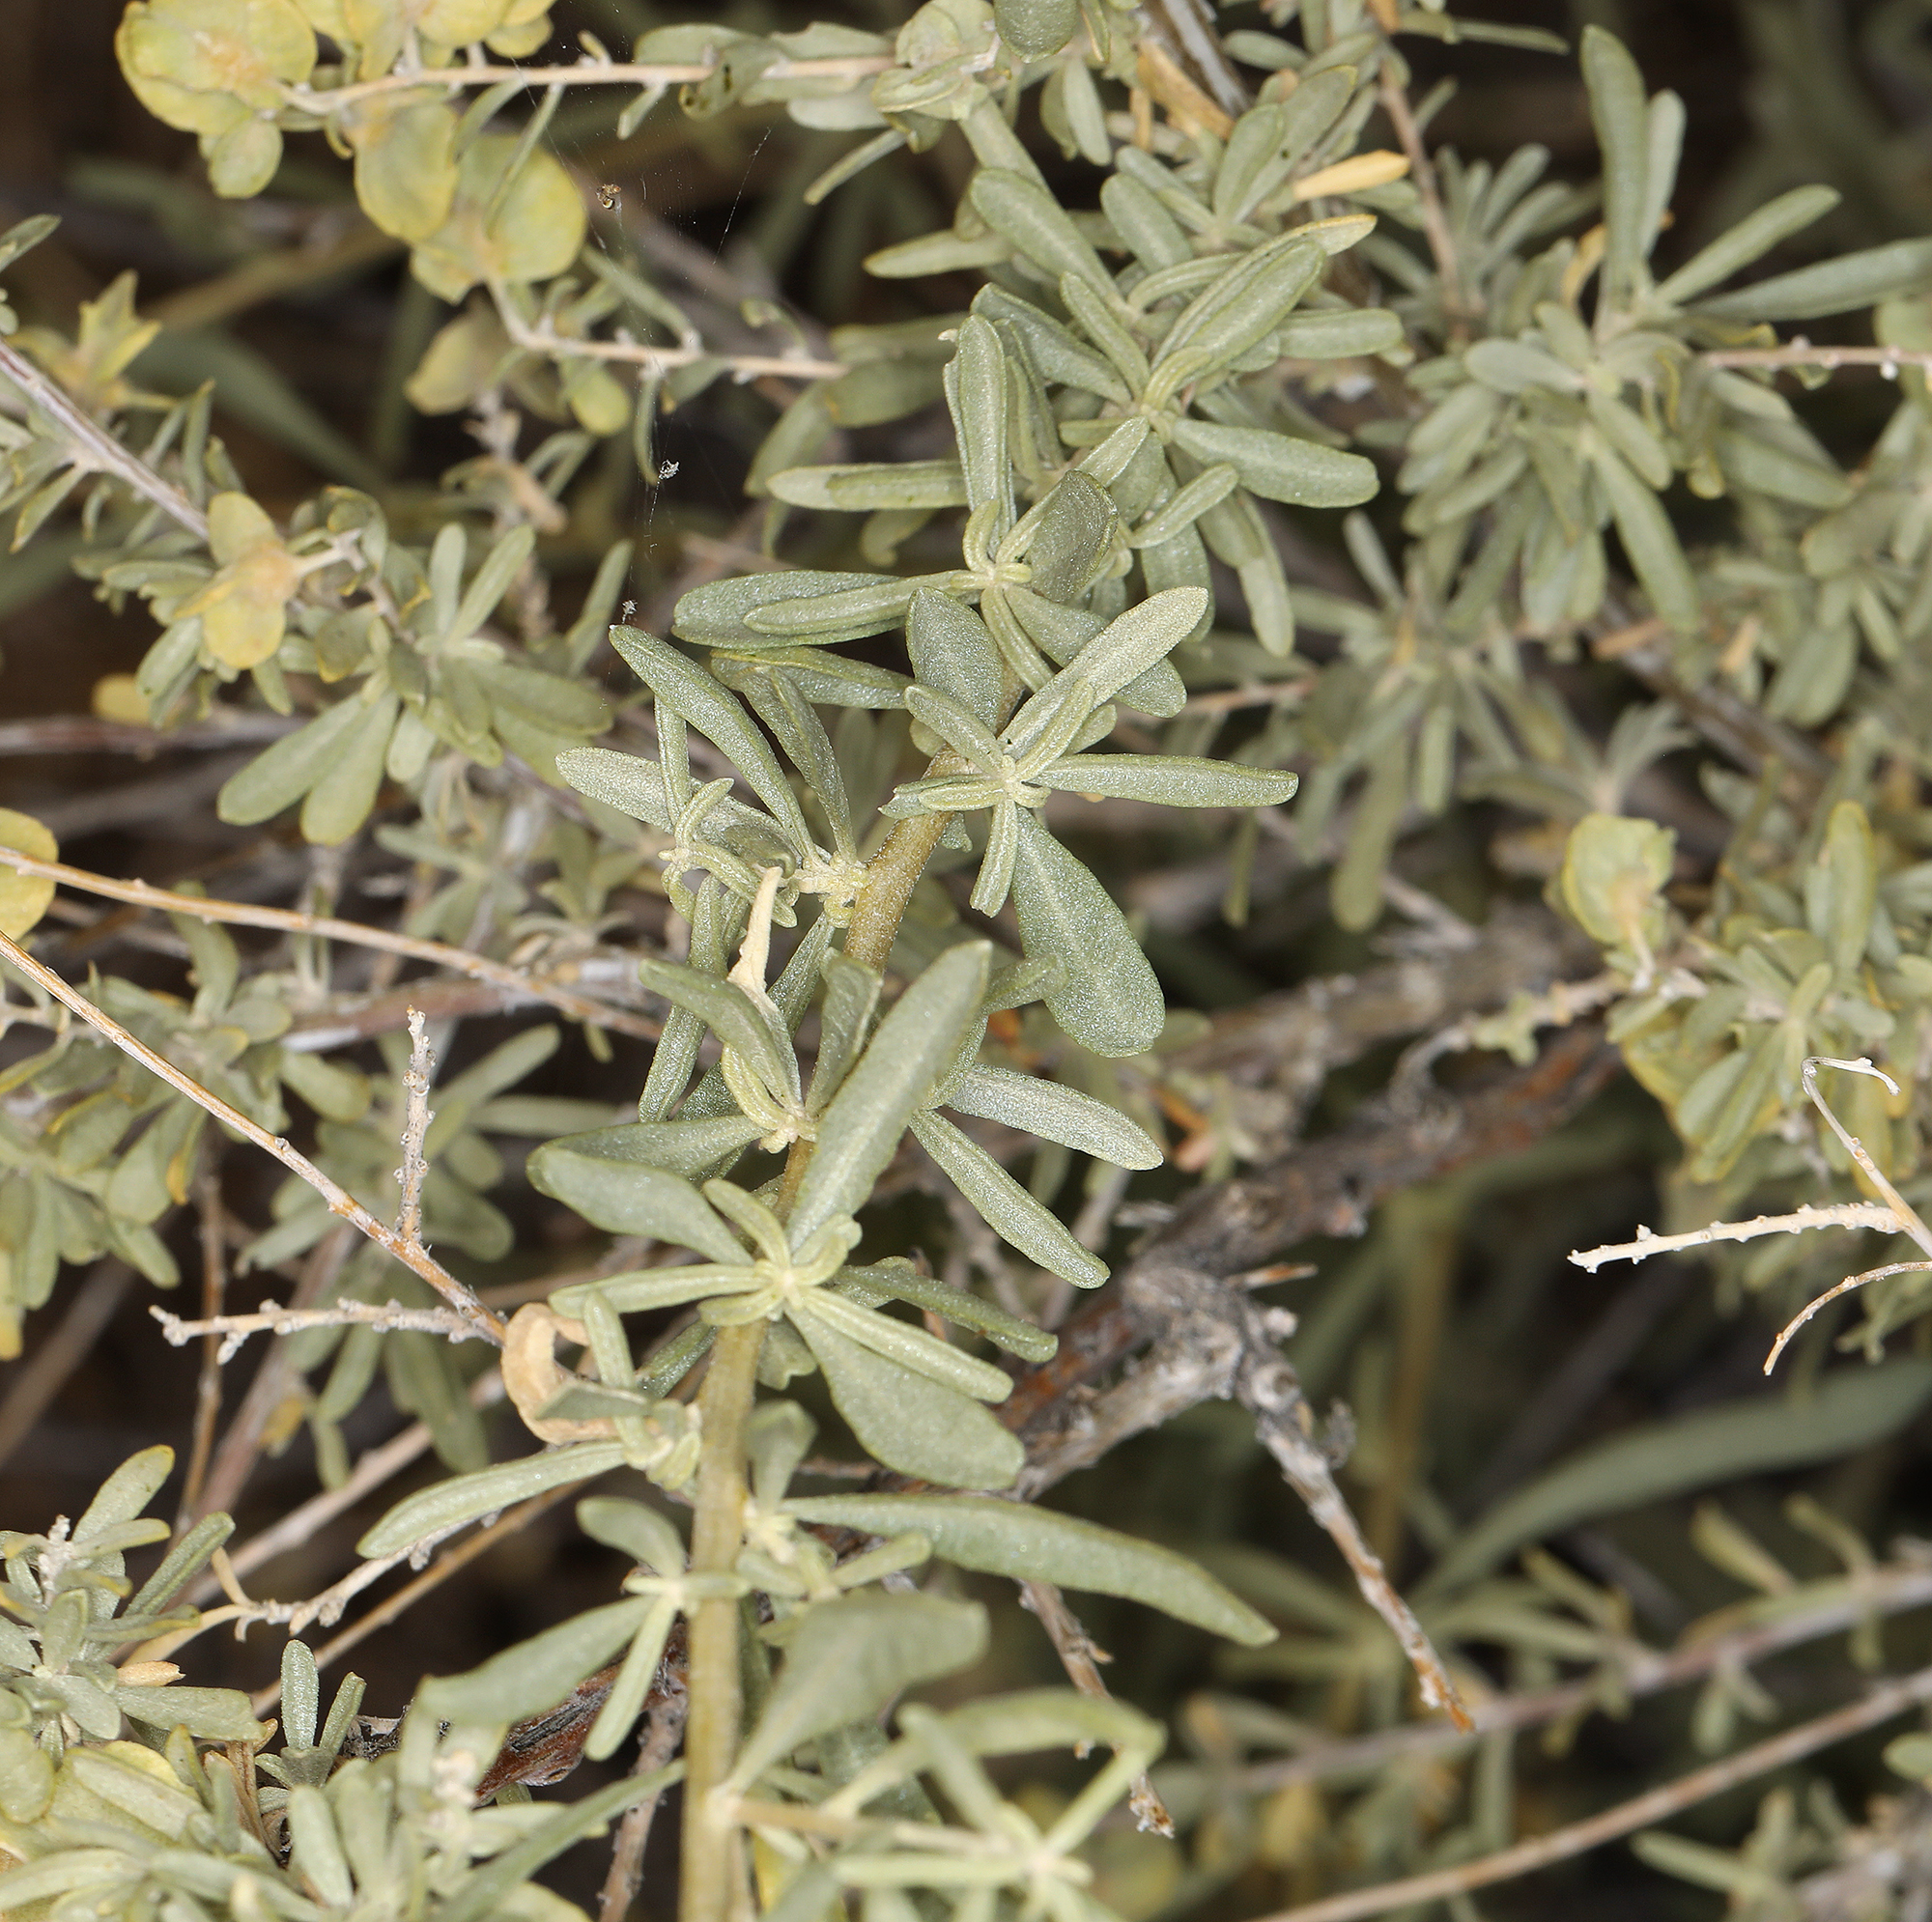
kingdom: Plantae
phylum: Tracheophyta
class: Magnoliopsida
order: Caryophyllales
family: Amaranthaceae
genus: Atriplex
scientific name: Atriplex canescens
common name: Four-wing saltbush
